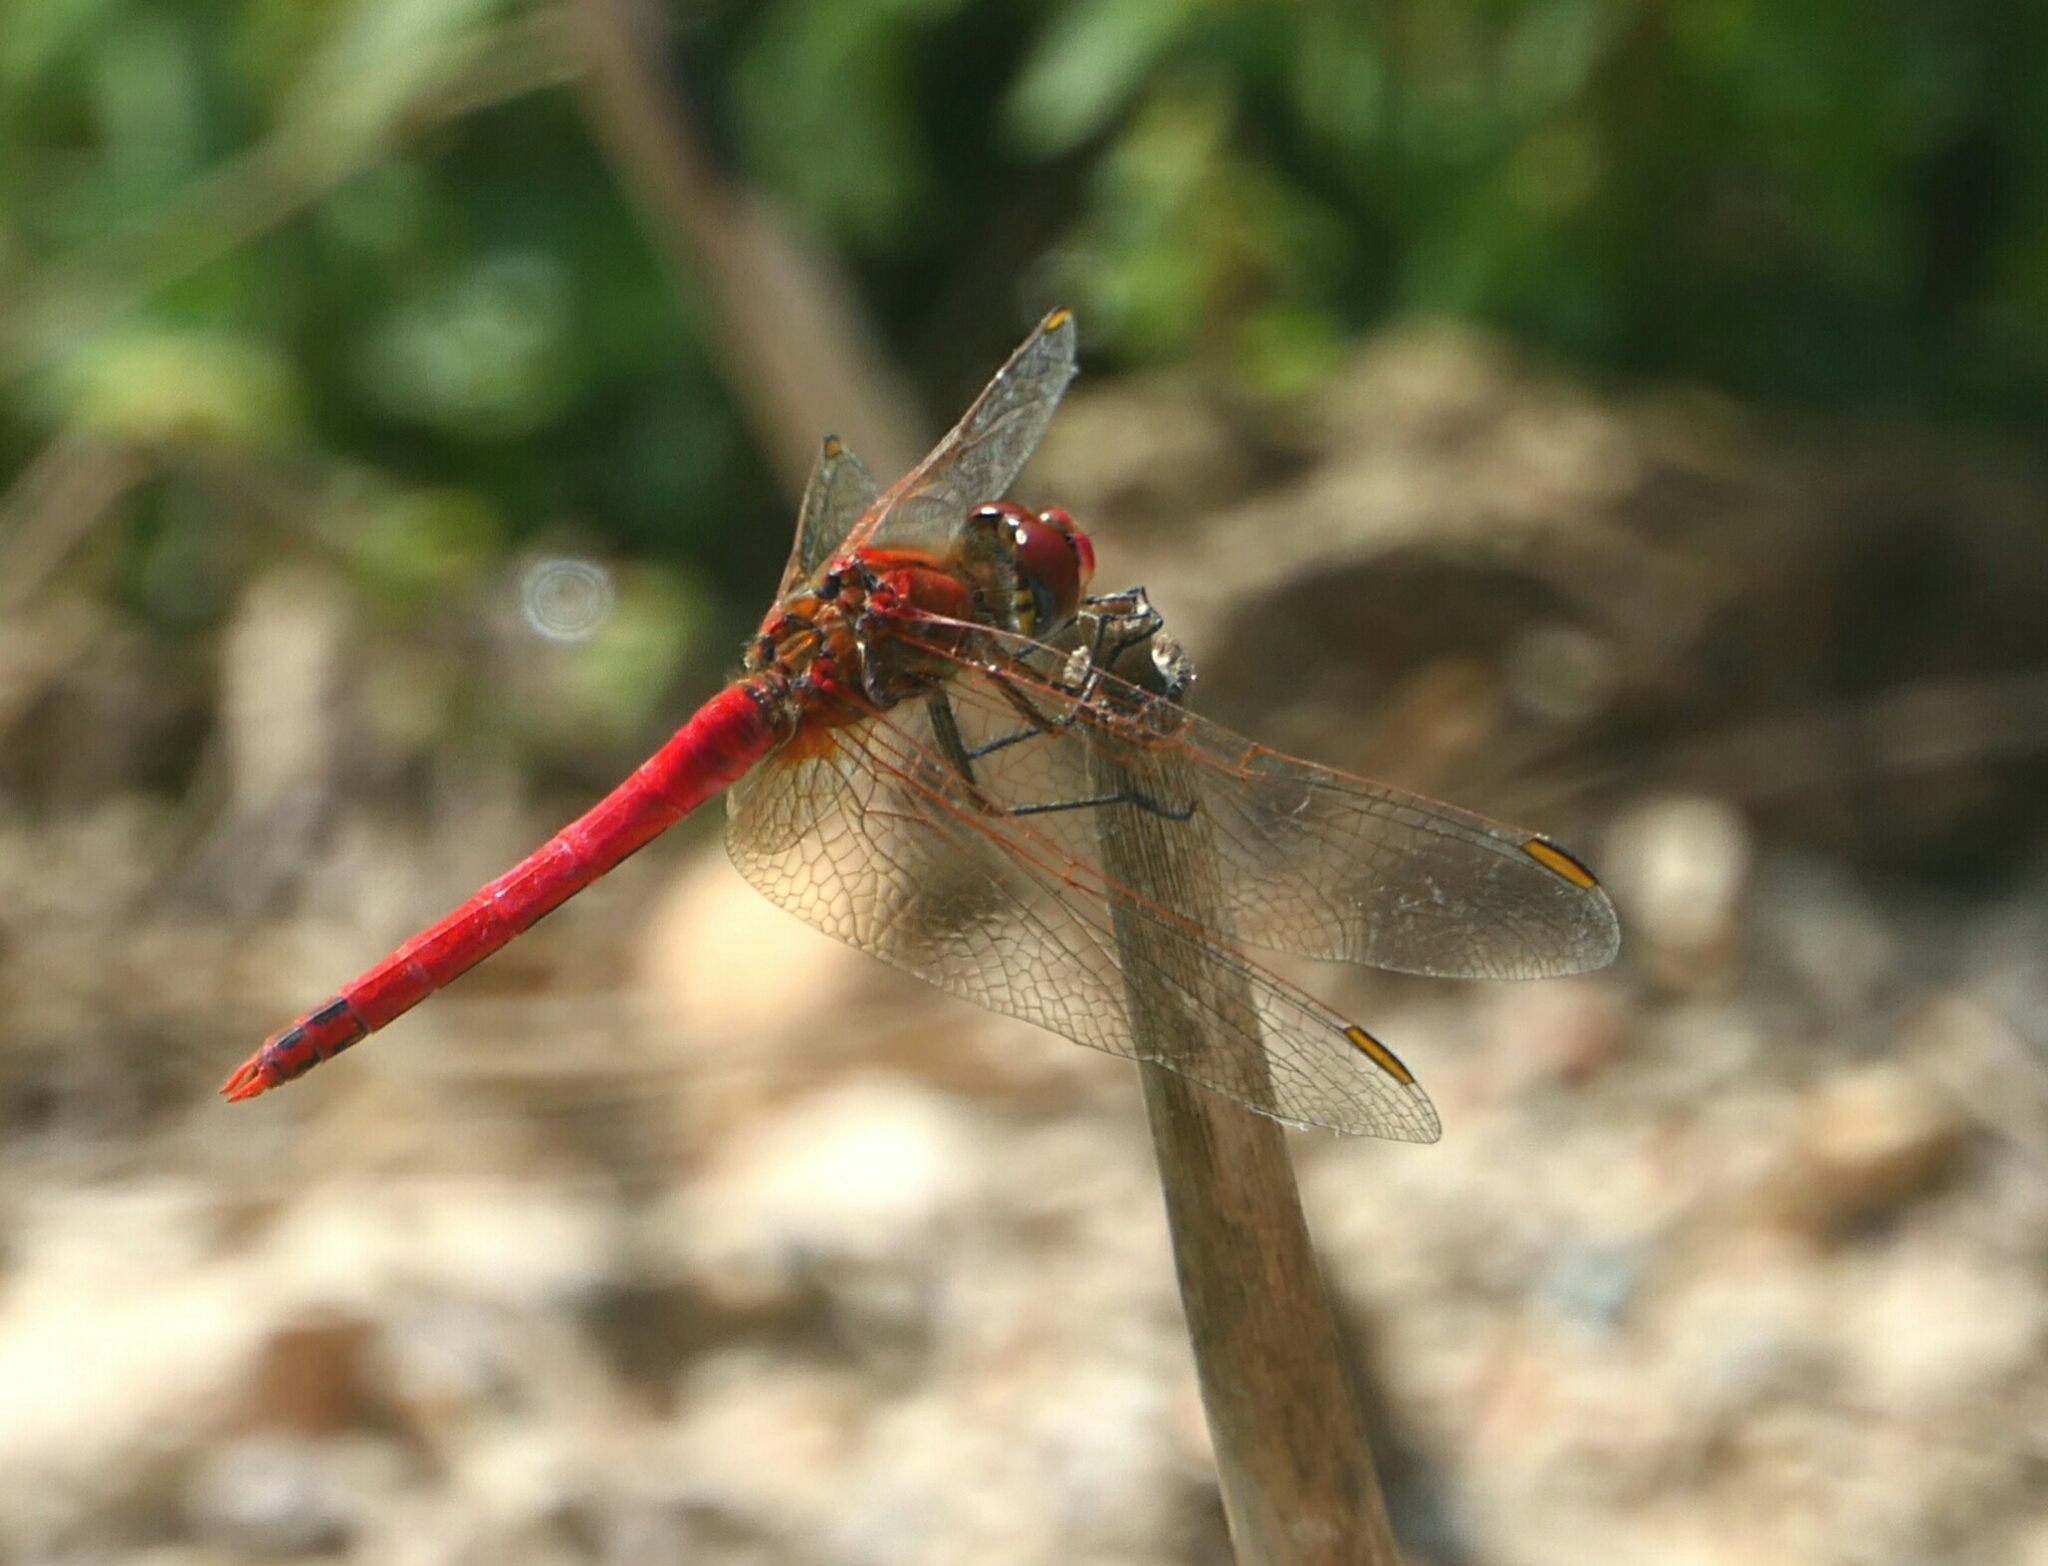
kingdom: Animalia
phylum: Arthropoda
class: Insecta
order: Odonata
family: Libellulidae
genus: Sympetrum
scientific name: Sympetrum fonscolombii
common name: Red-veined darter
